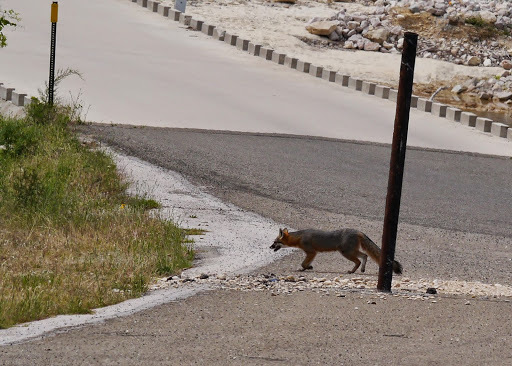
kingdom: Animalia
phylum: Chordata
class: Mammalia
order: Carnivora
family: Canidae
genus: Urocyon
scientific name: Urocyon cinereoargenteus
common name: Gray fox
